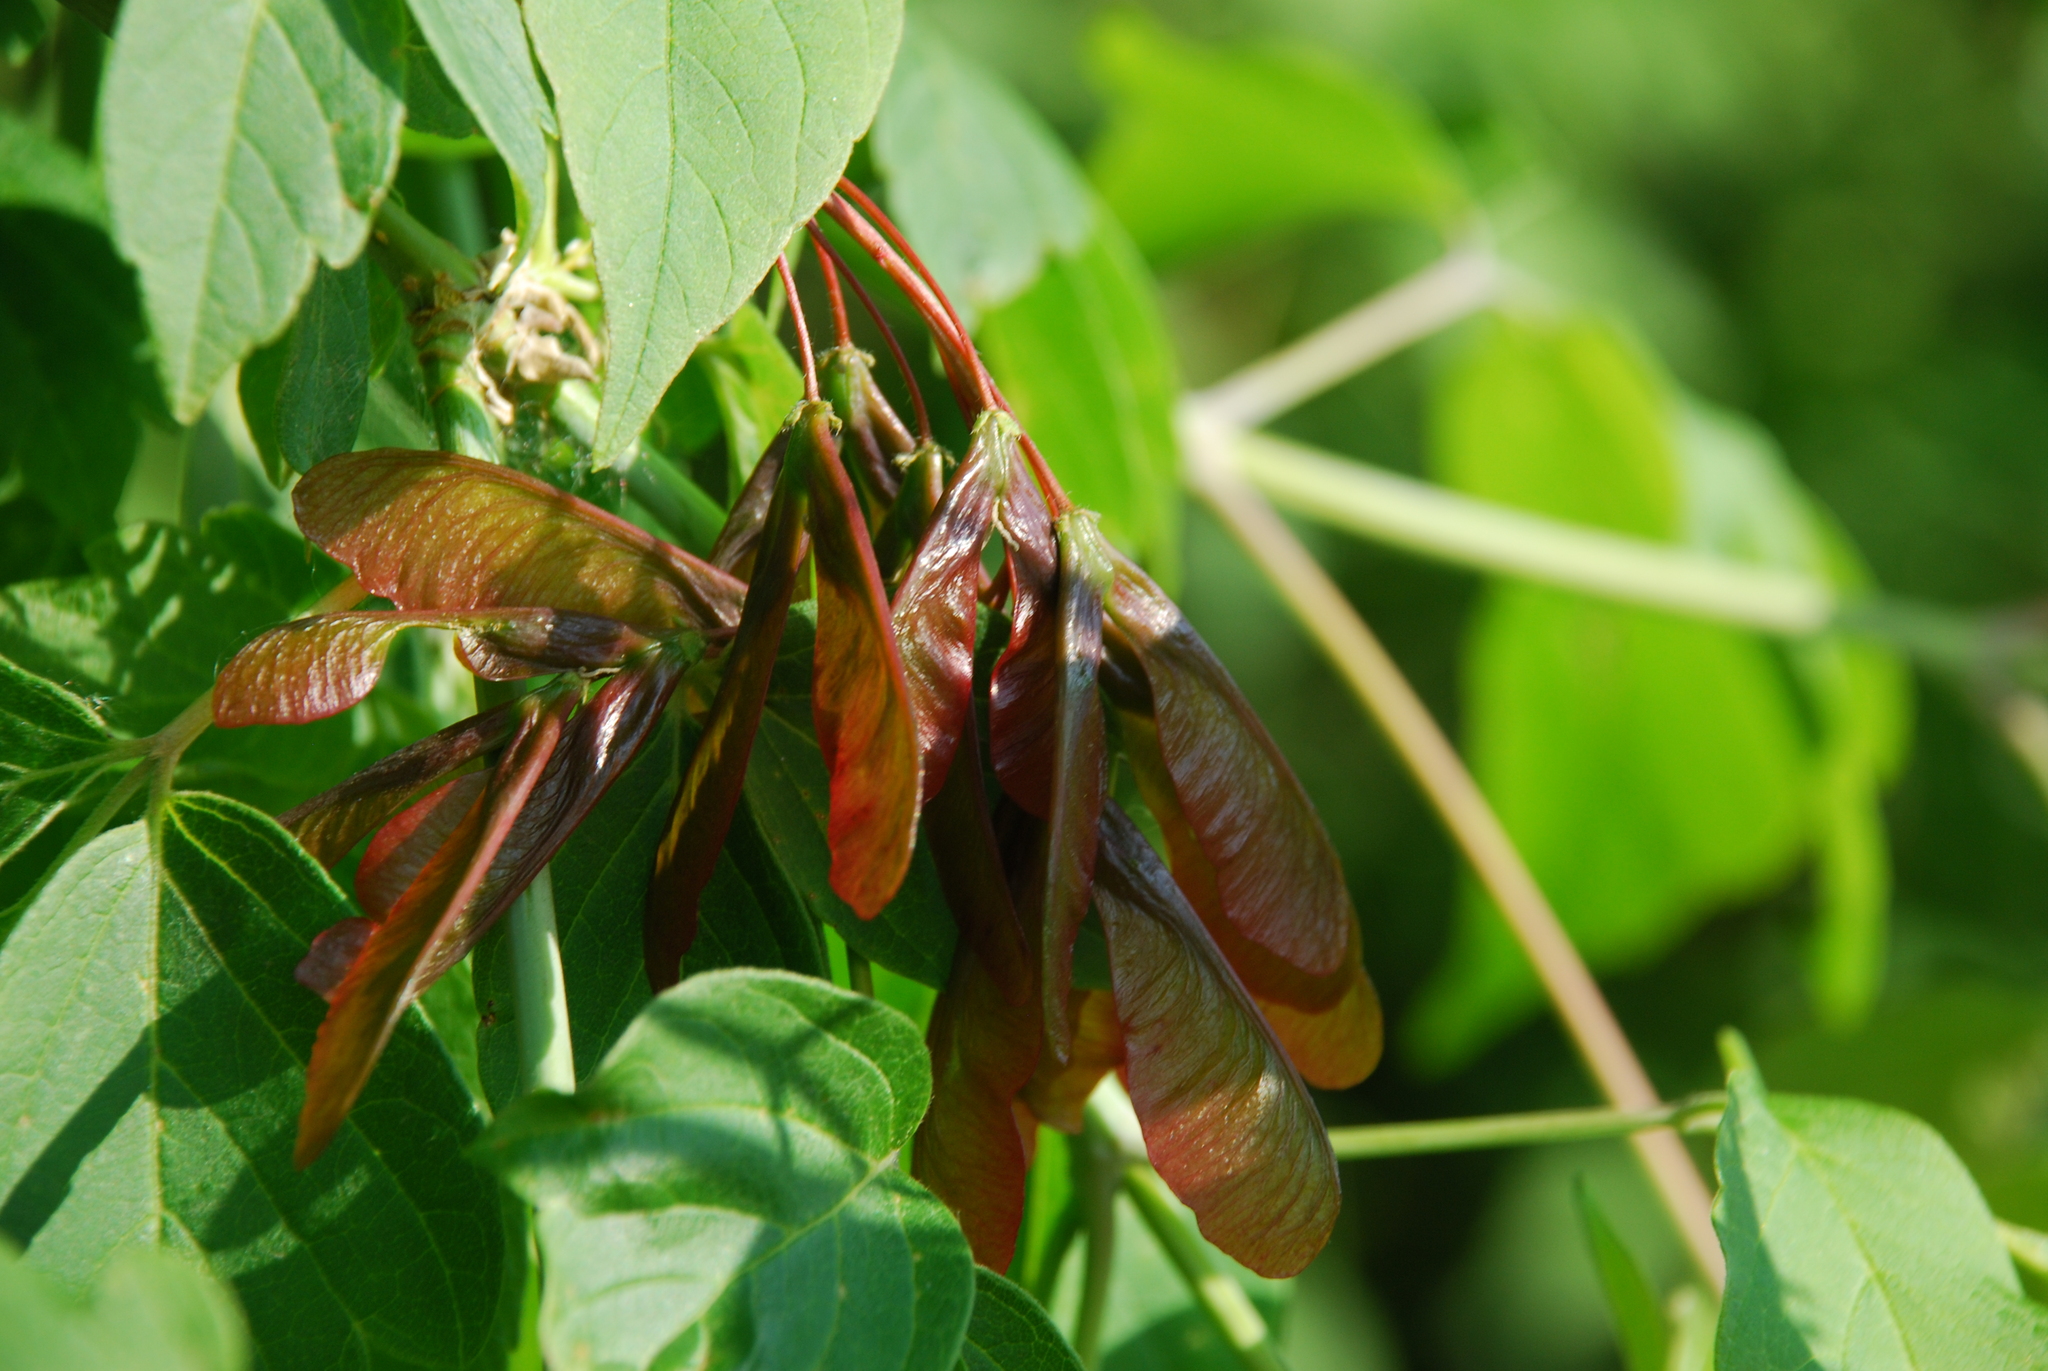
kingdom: Plantae
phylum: Tracheophyta
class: Magnoliopsida
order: Sapindales
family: Sapindaceae
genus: Acer
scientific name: Acer negundo
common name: Ashleaf maple
